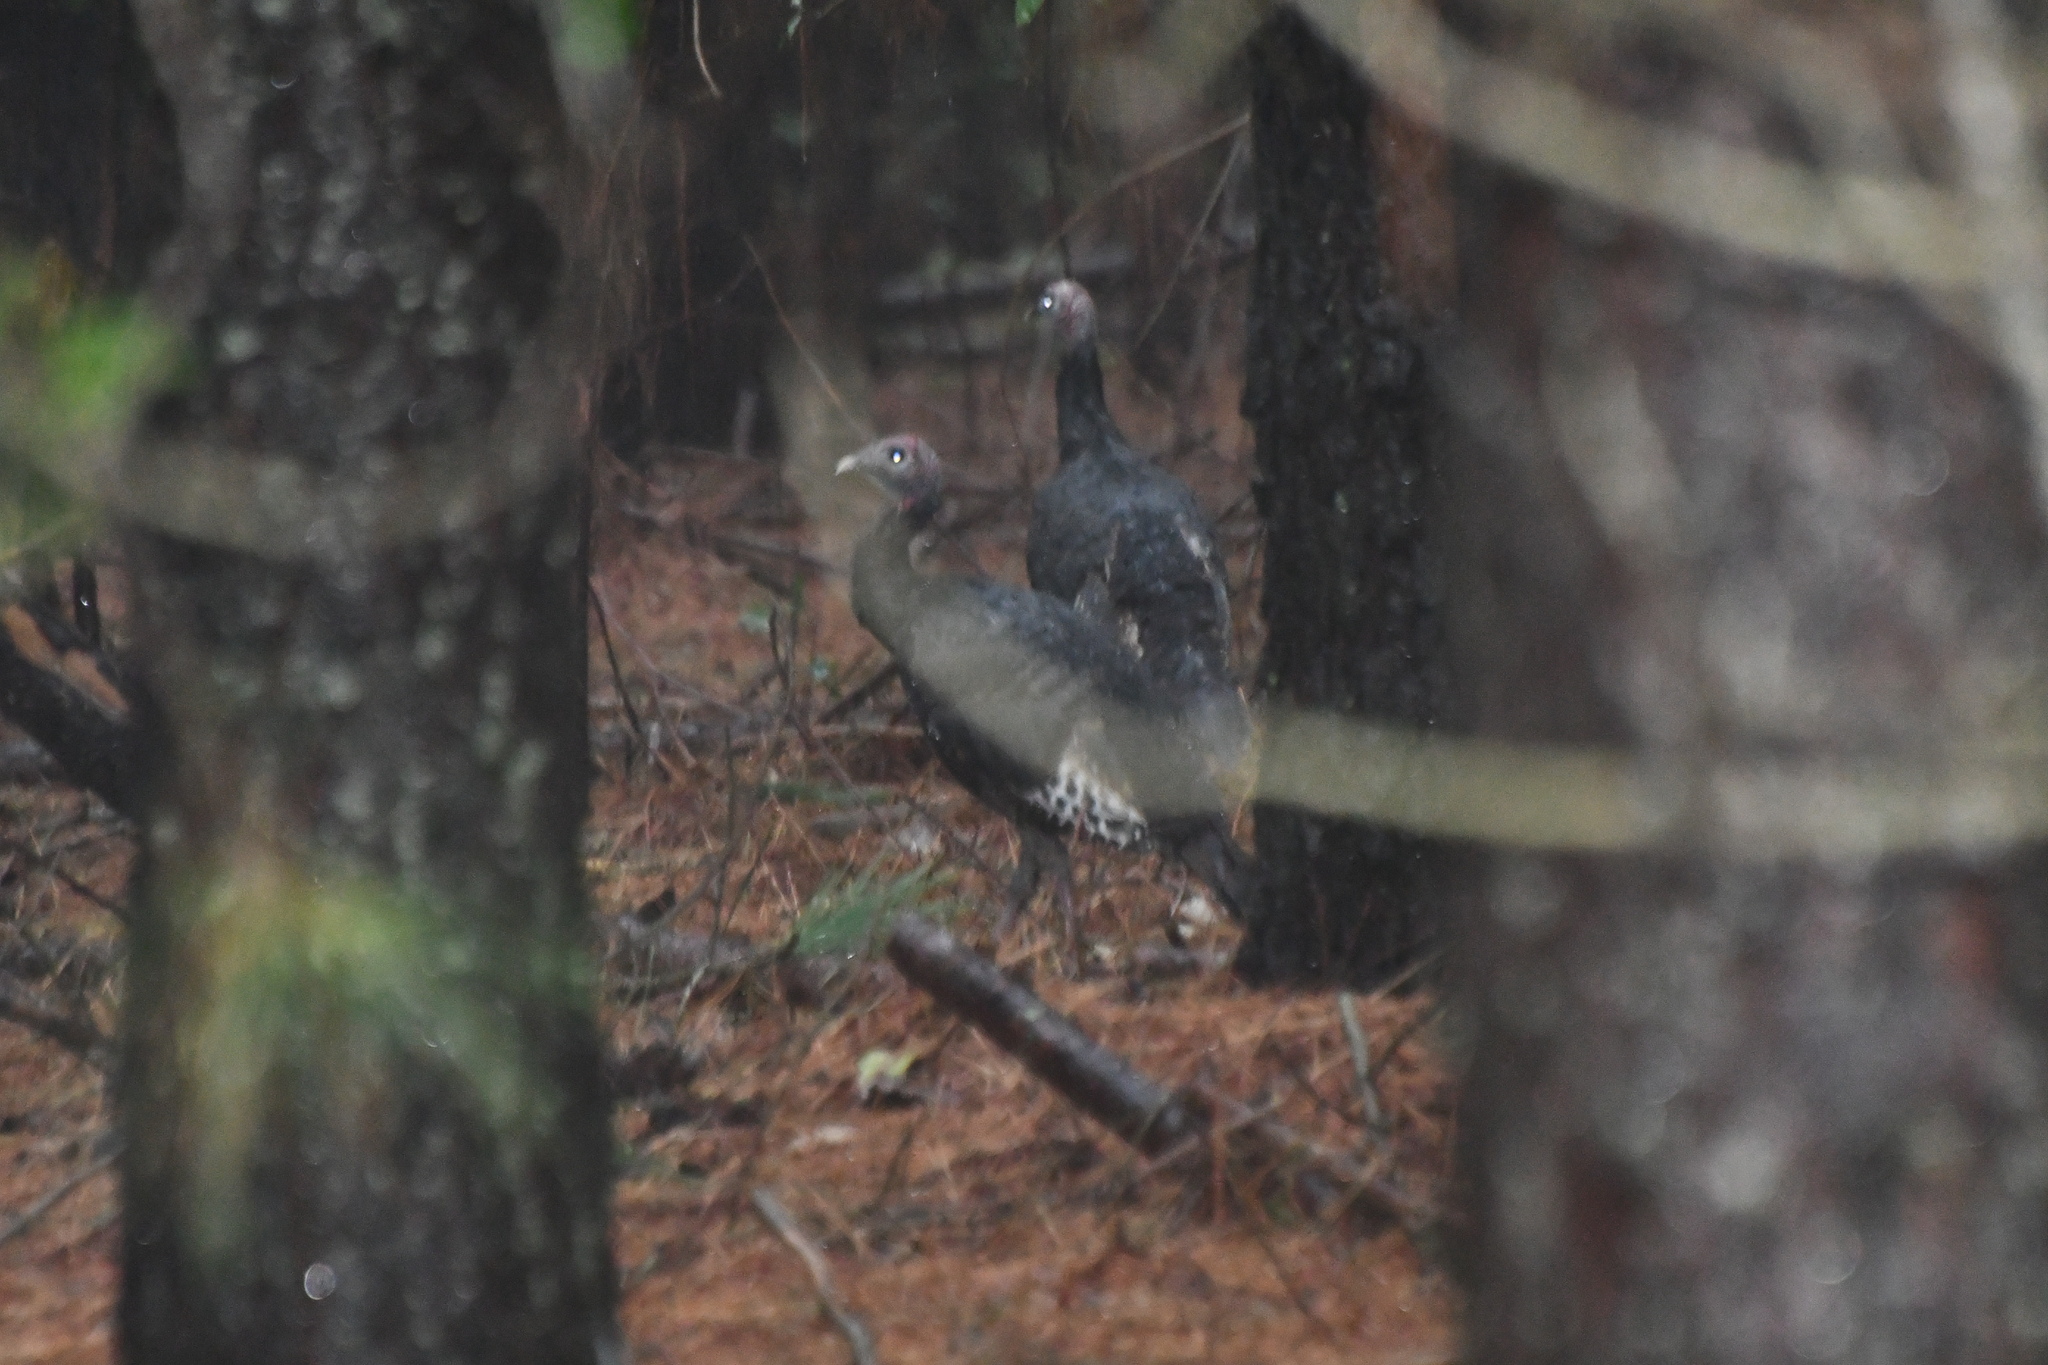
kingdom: Animalia
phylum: Chordata
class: Aves
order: Galliformes
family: Phasianidae
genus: Meleagris
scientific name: Meleagris gallopavo
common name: Wild turkey
